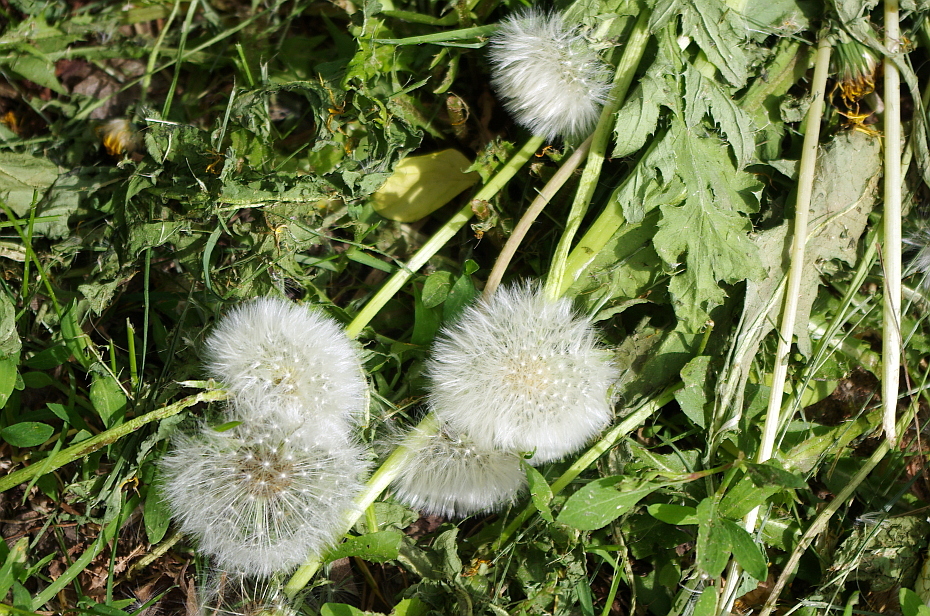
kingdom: Plantae
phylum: Tracheophyta
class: Magnoliopsida
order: Asterales
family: Asteraceae
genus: Taraxacum
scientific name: Taraxacum officinale
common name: Common dandelion
